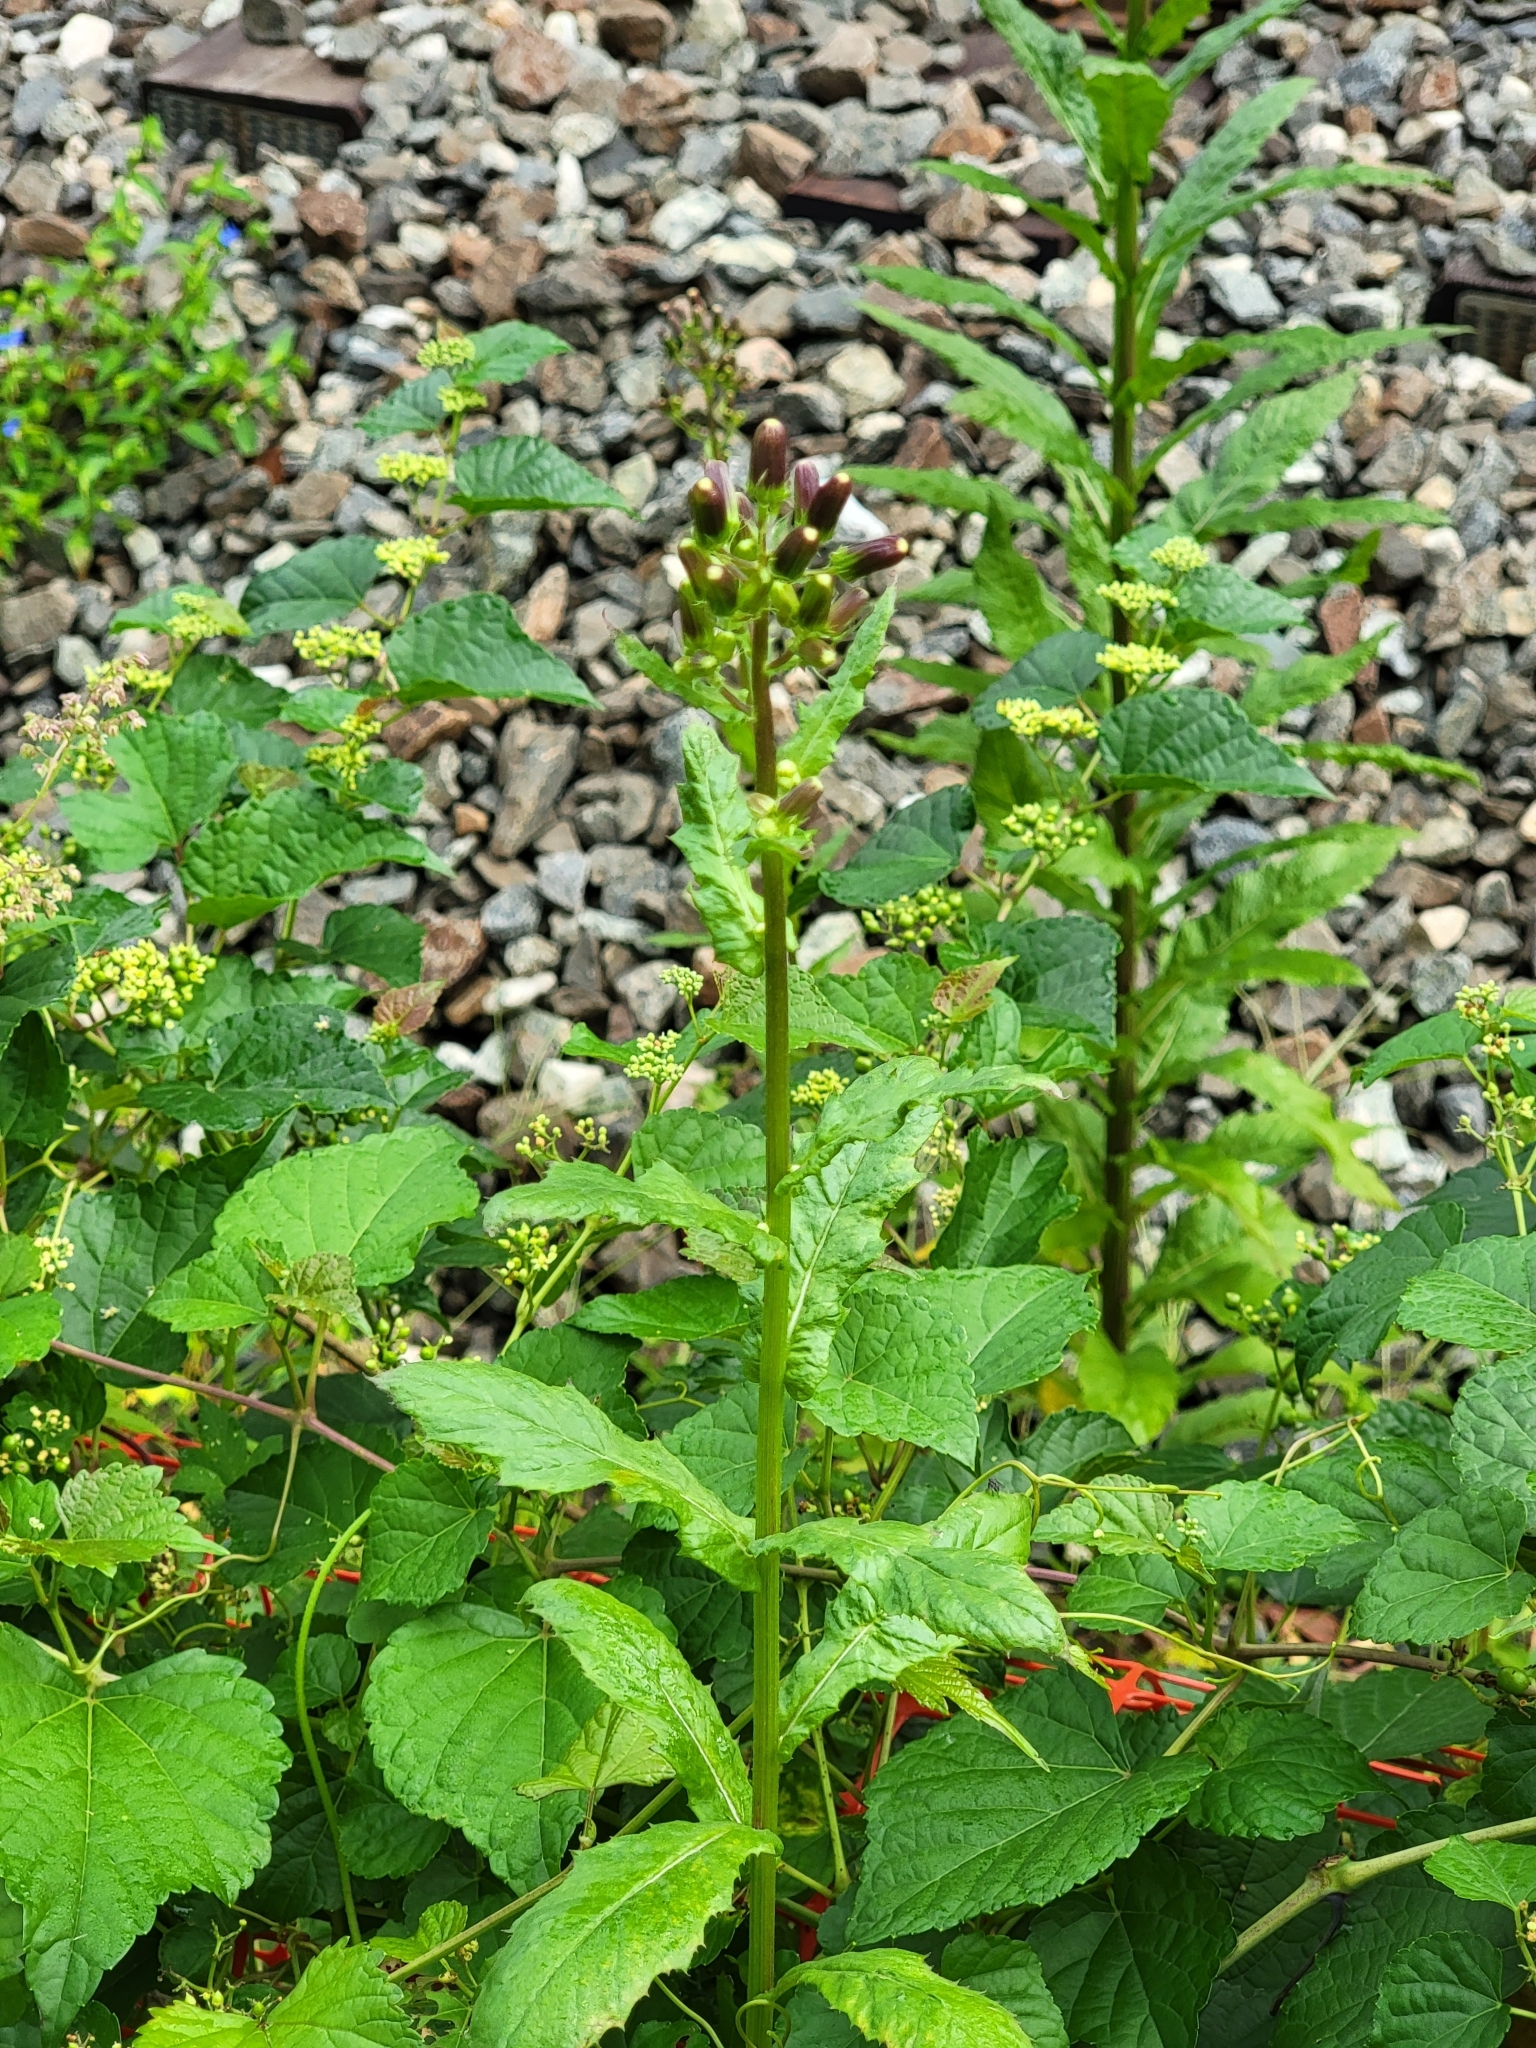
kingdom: Plantae
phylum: Tracheophyta
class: Magnoliopsida
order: Asterales
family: Asteraceae
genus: Erechtites
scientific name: Erechtites hieraciifolius
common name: American burnweed
